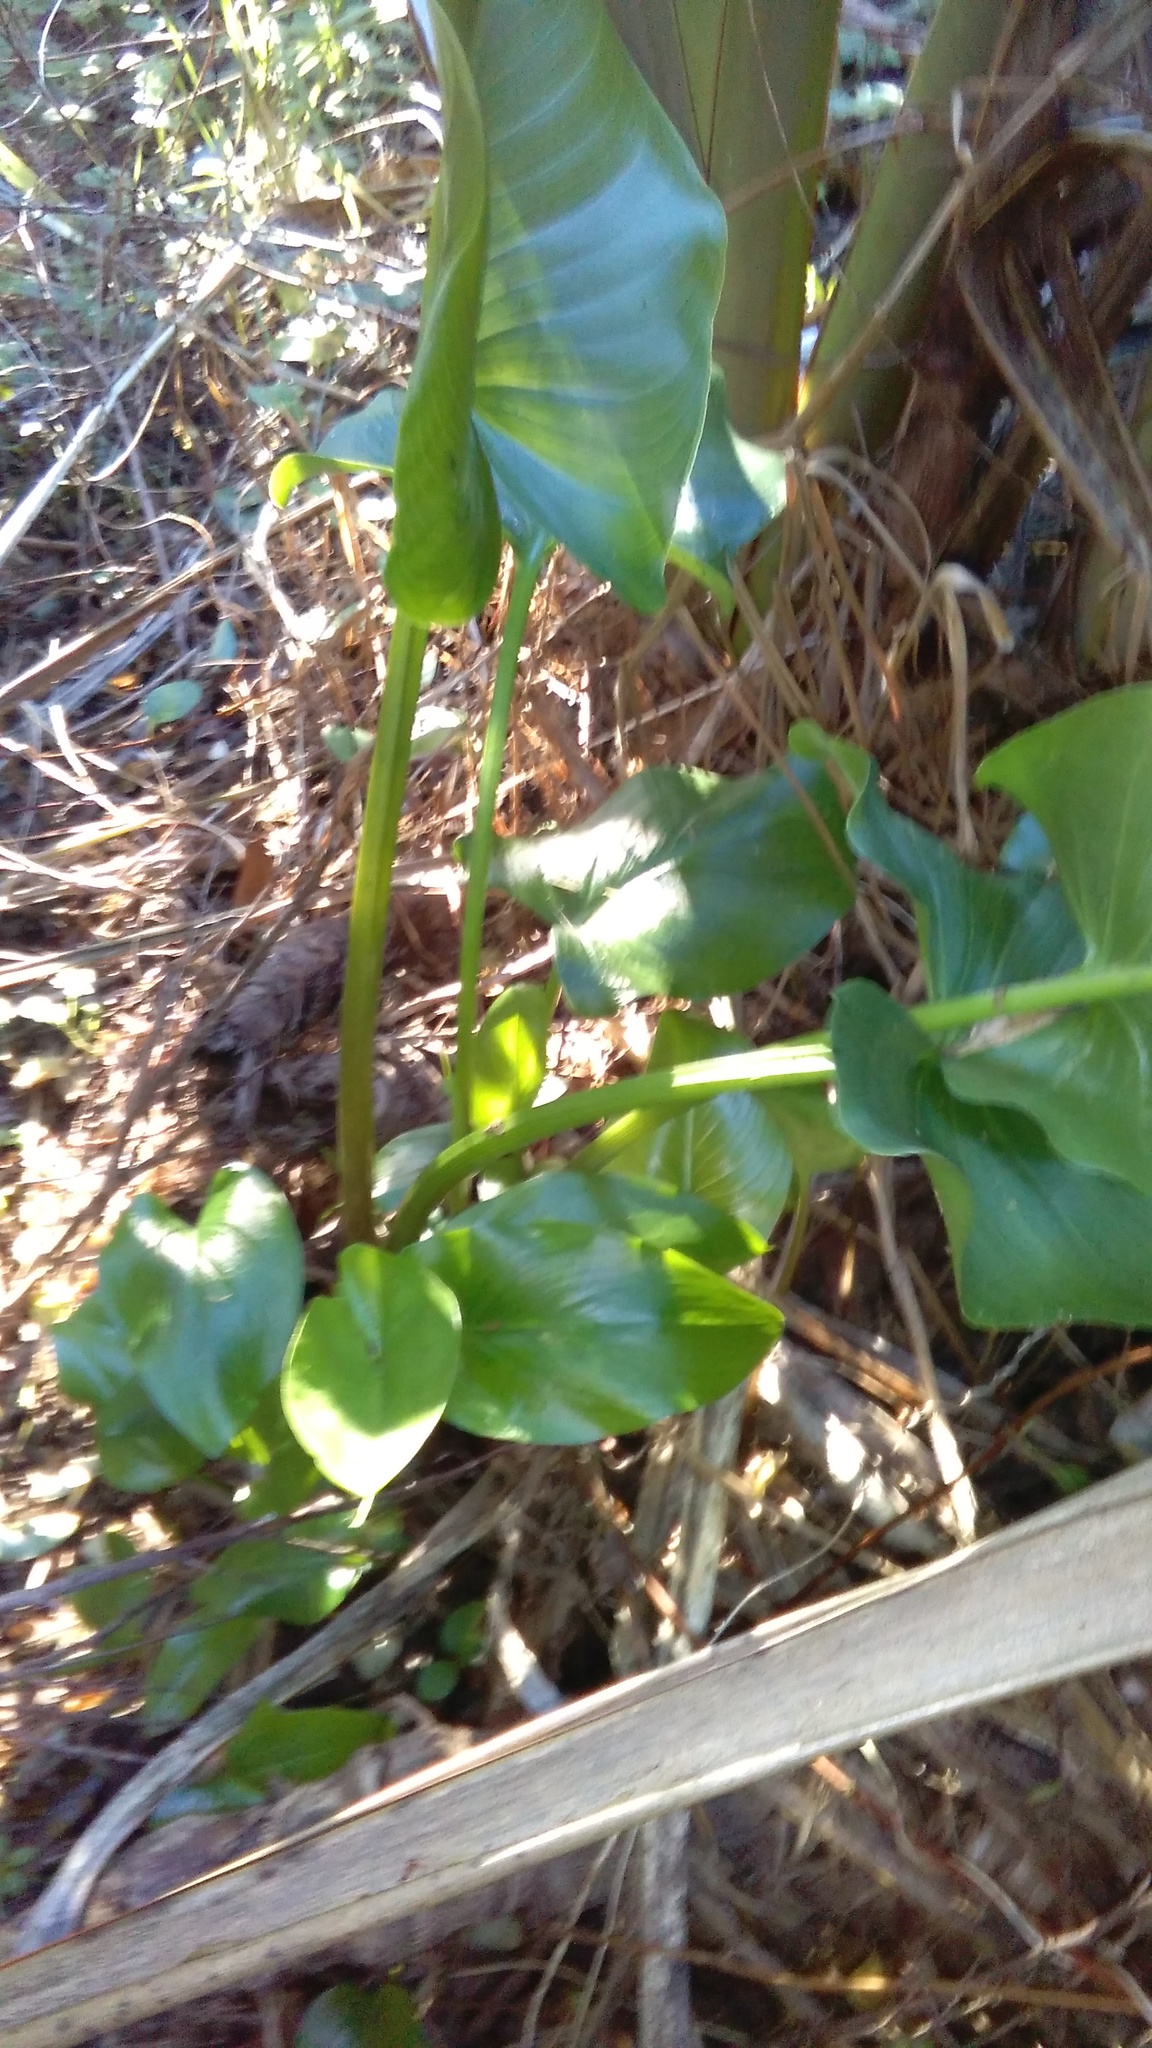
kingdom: Plantae
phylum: Tracheophyta
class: Liliopsida
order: Alismatales
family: Araceae
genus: Zantedeschia
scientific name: Zantedeschia aethiopica
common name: Altar-lily
